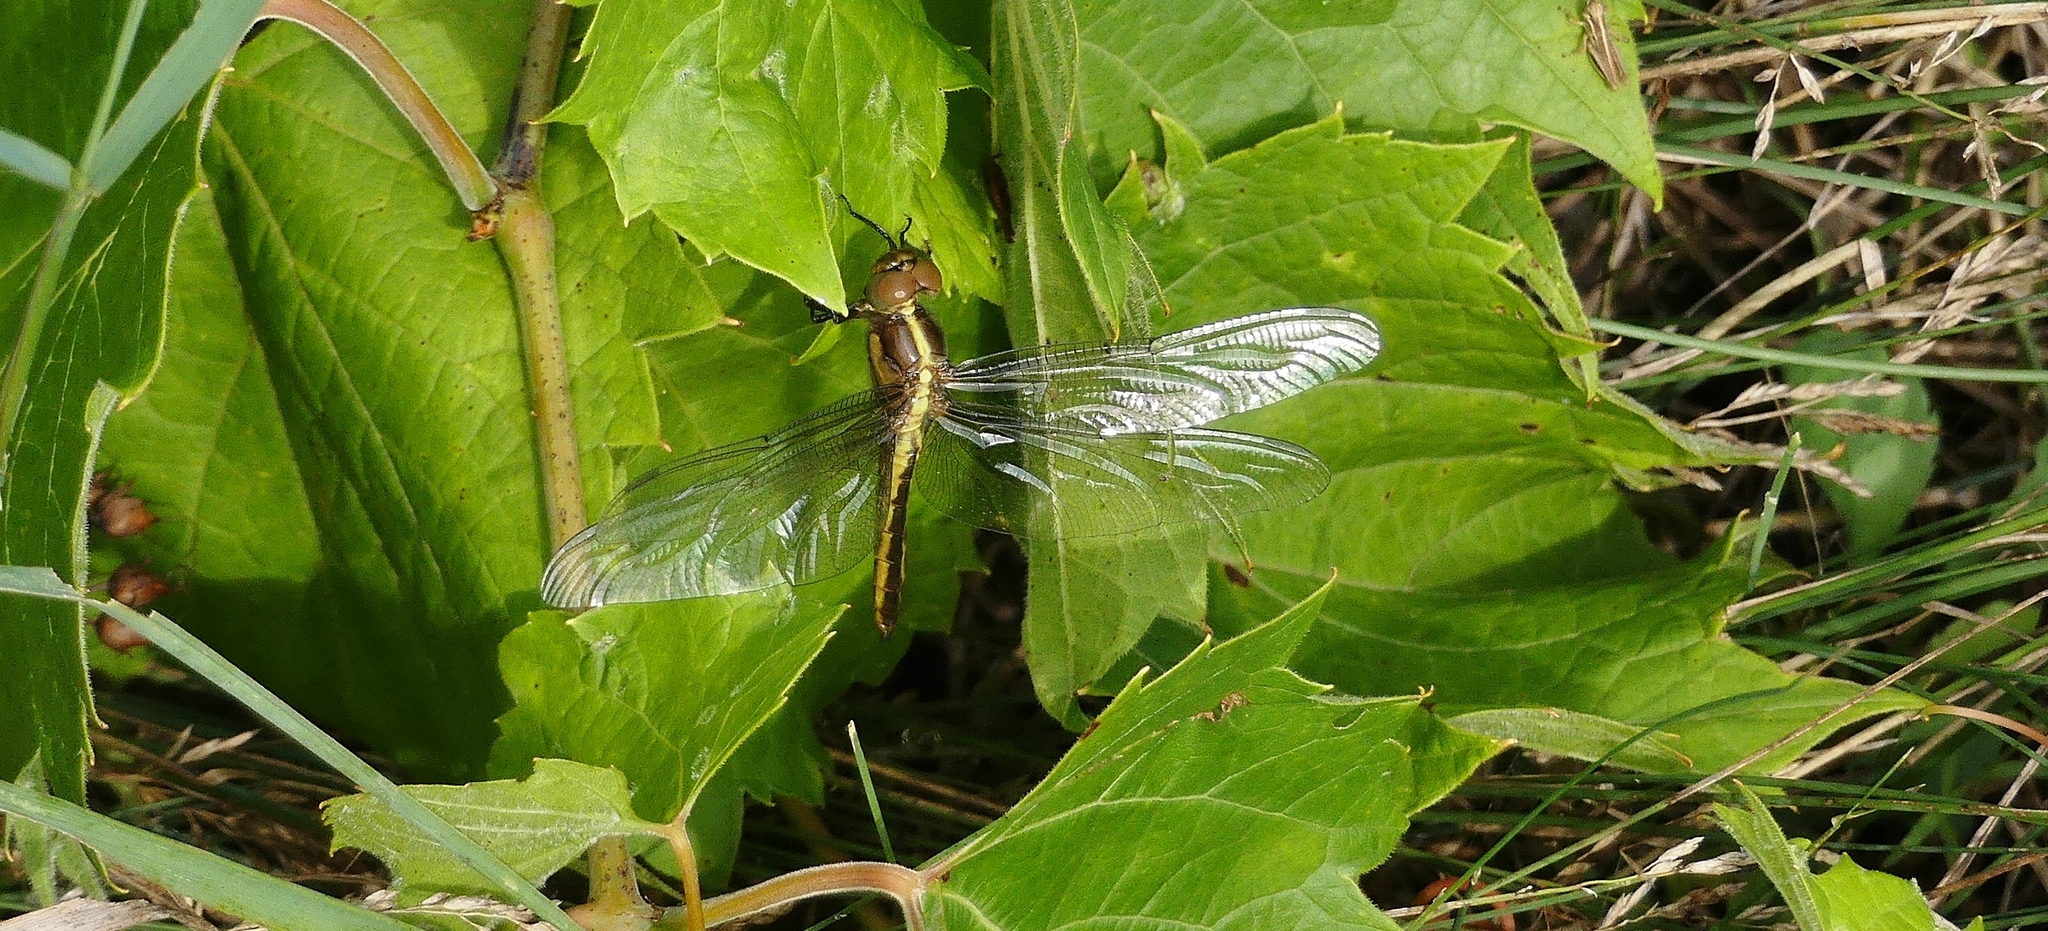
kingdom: Animalia
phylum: Arthropoda
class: Insecta
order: Odonata
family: Libellulidae
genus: Libellula
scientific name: Libellula luctuosa
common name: Widow skimmer
